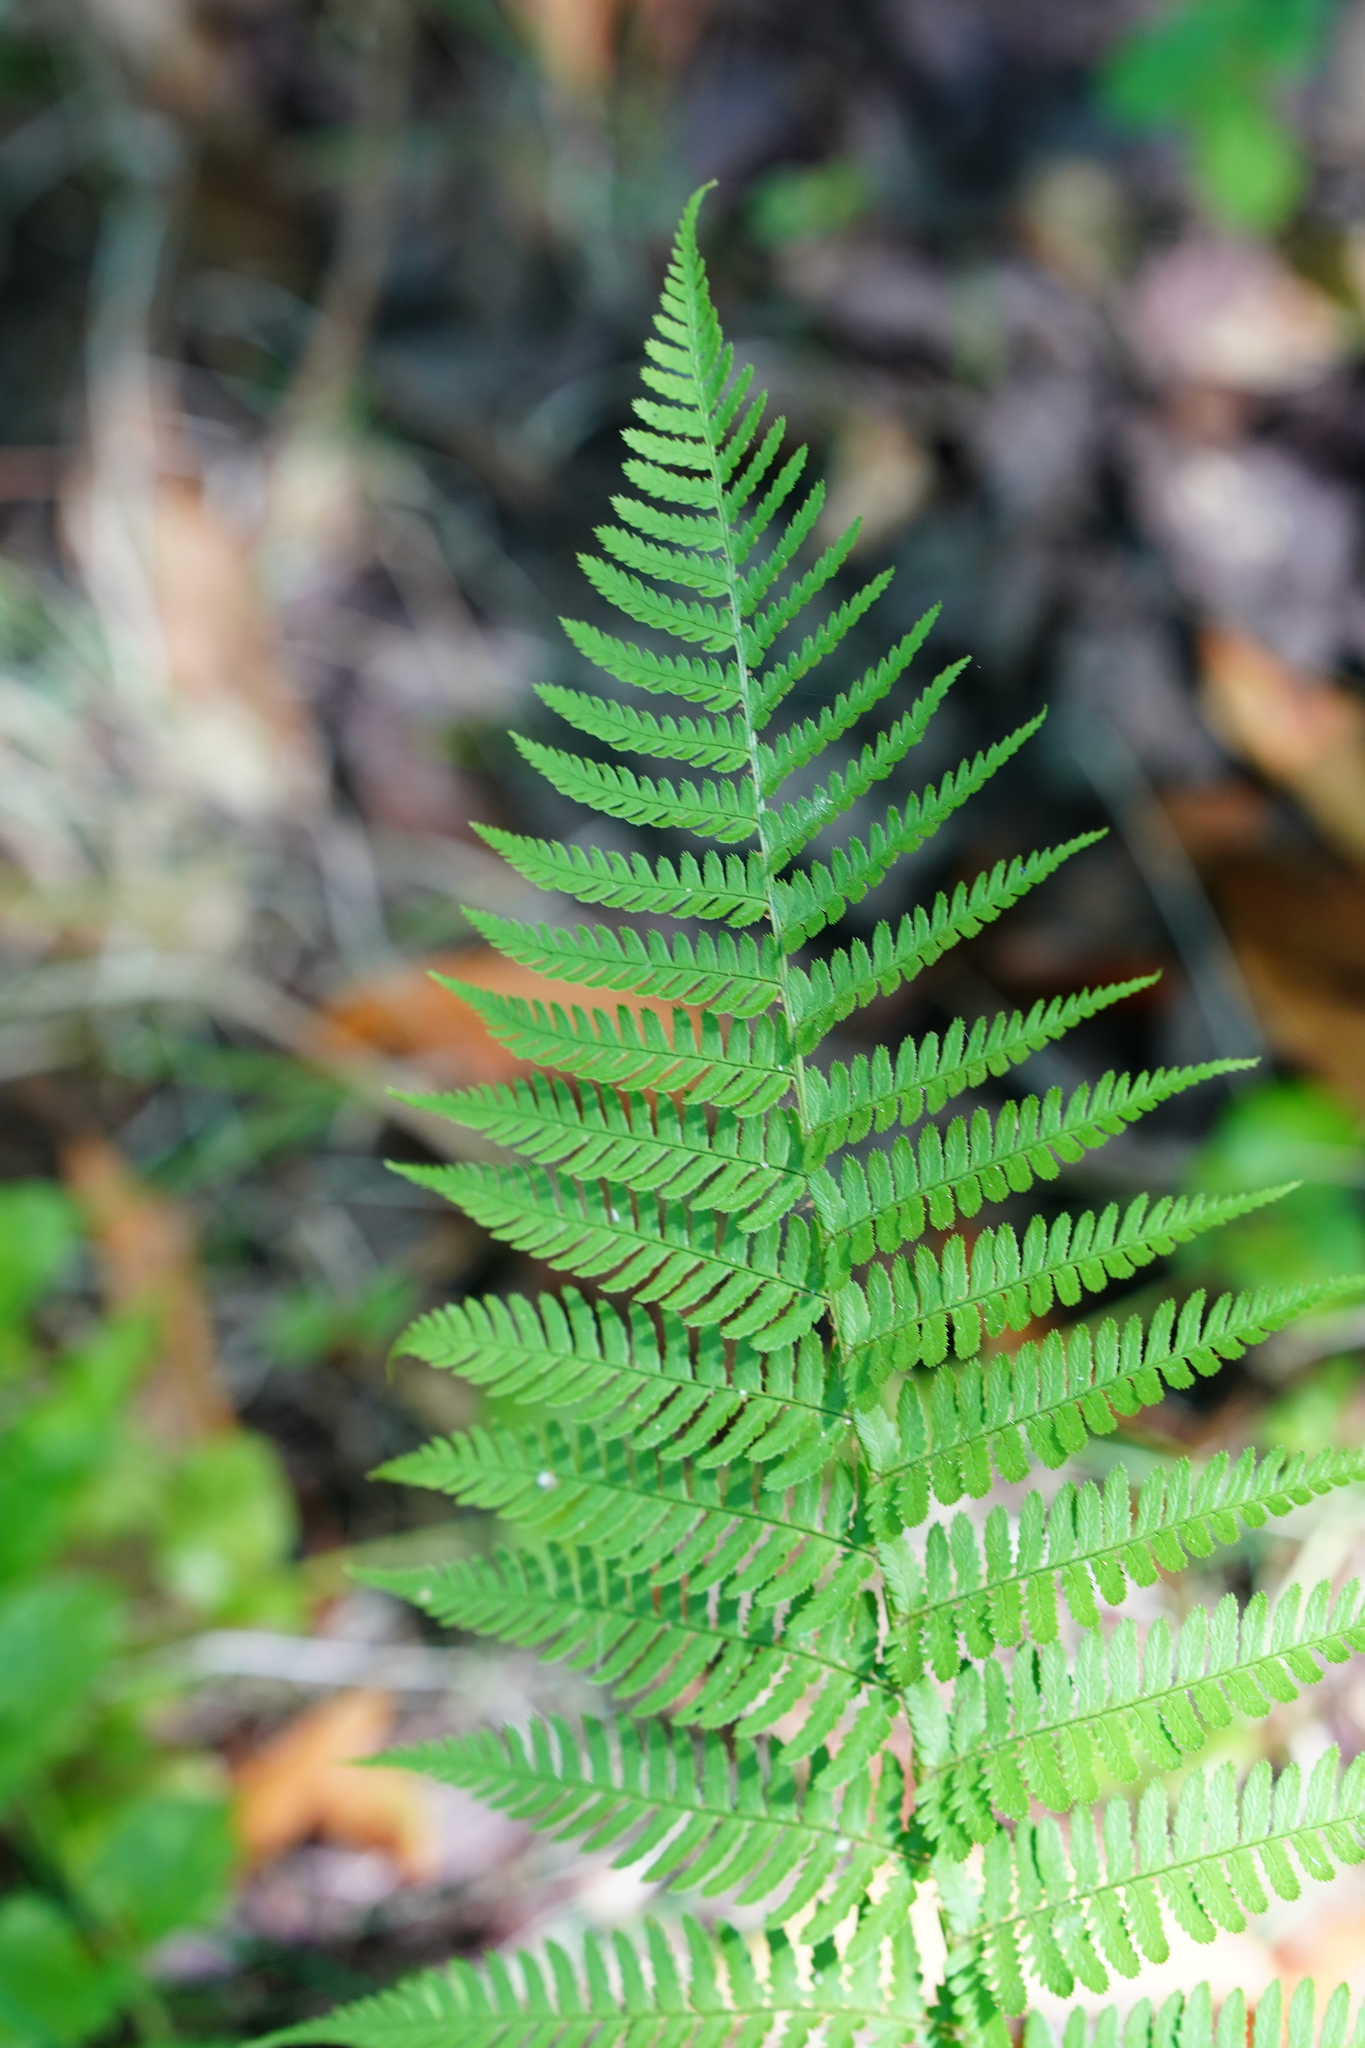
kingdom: Plantae
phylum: Tracheophyta
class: Polypodiopsida
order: Polypodiales
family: Dryopteridaceae
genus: Dryopteris
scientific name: Dryopteris arguta
